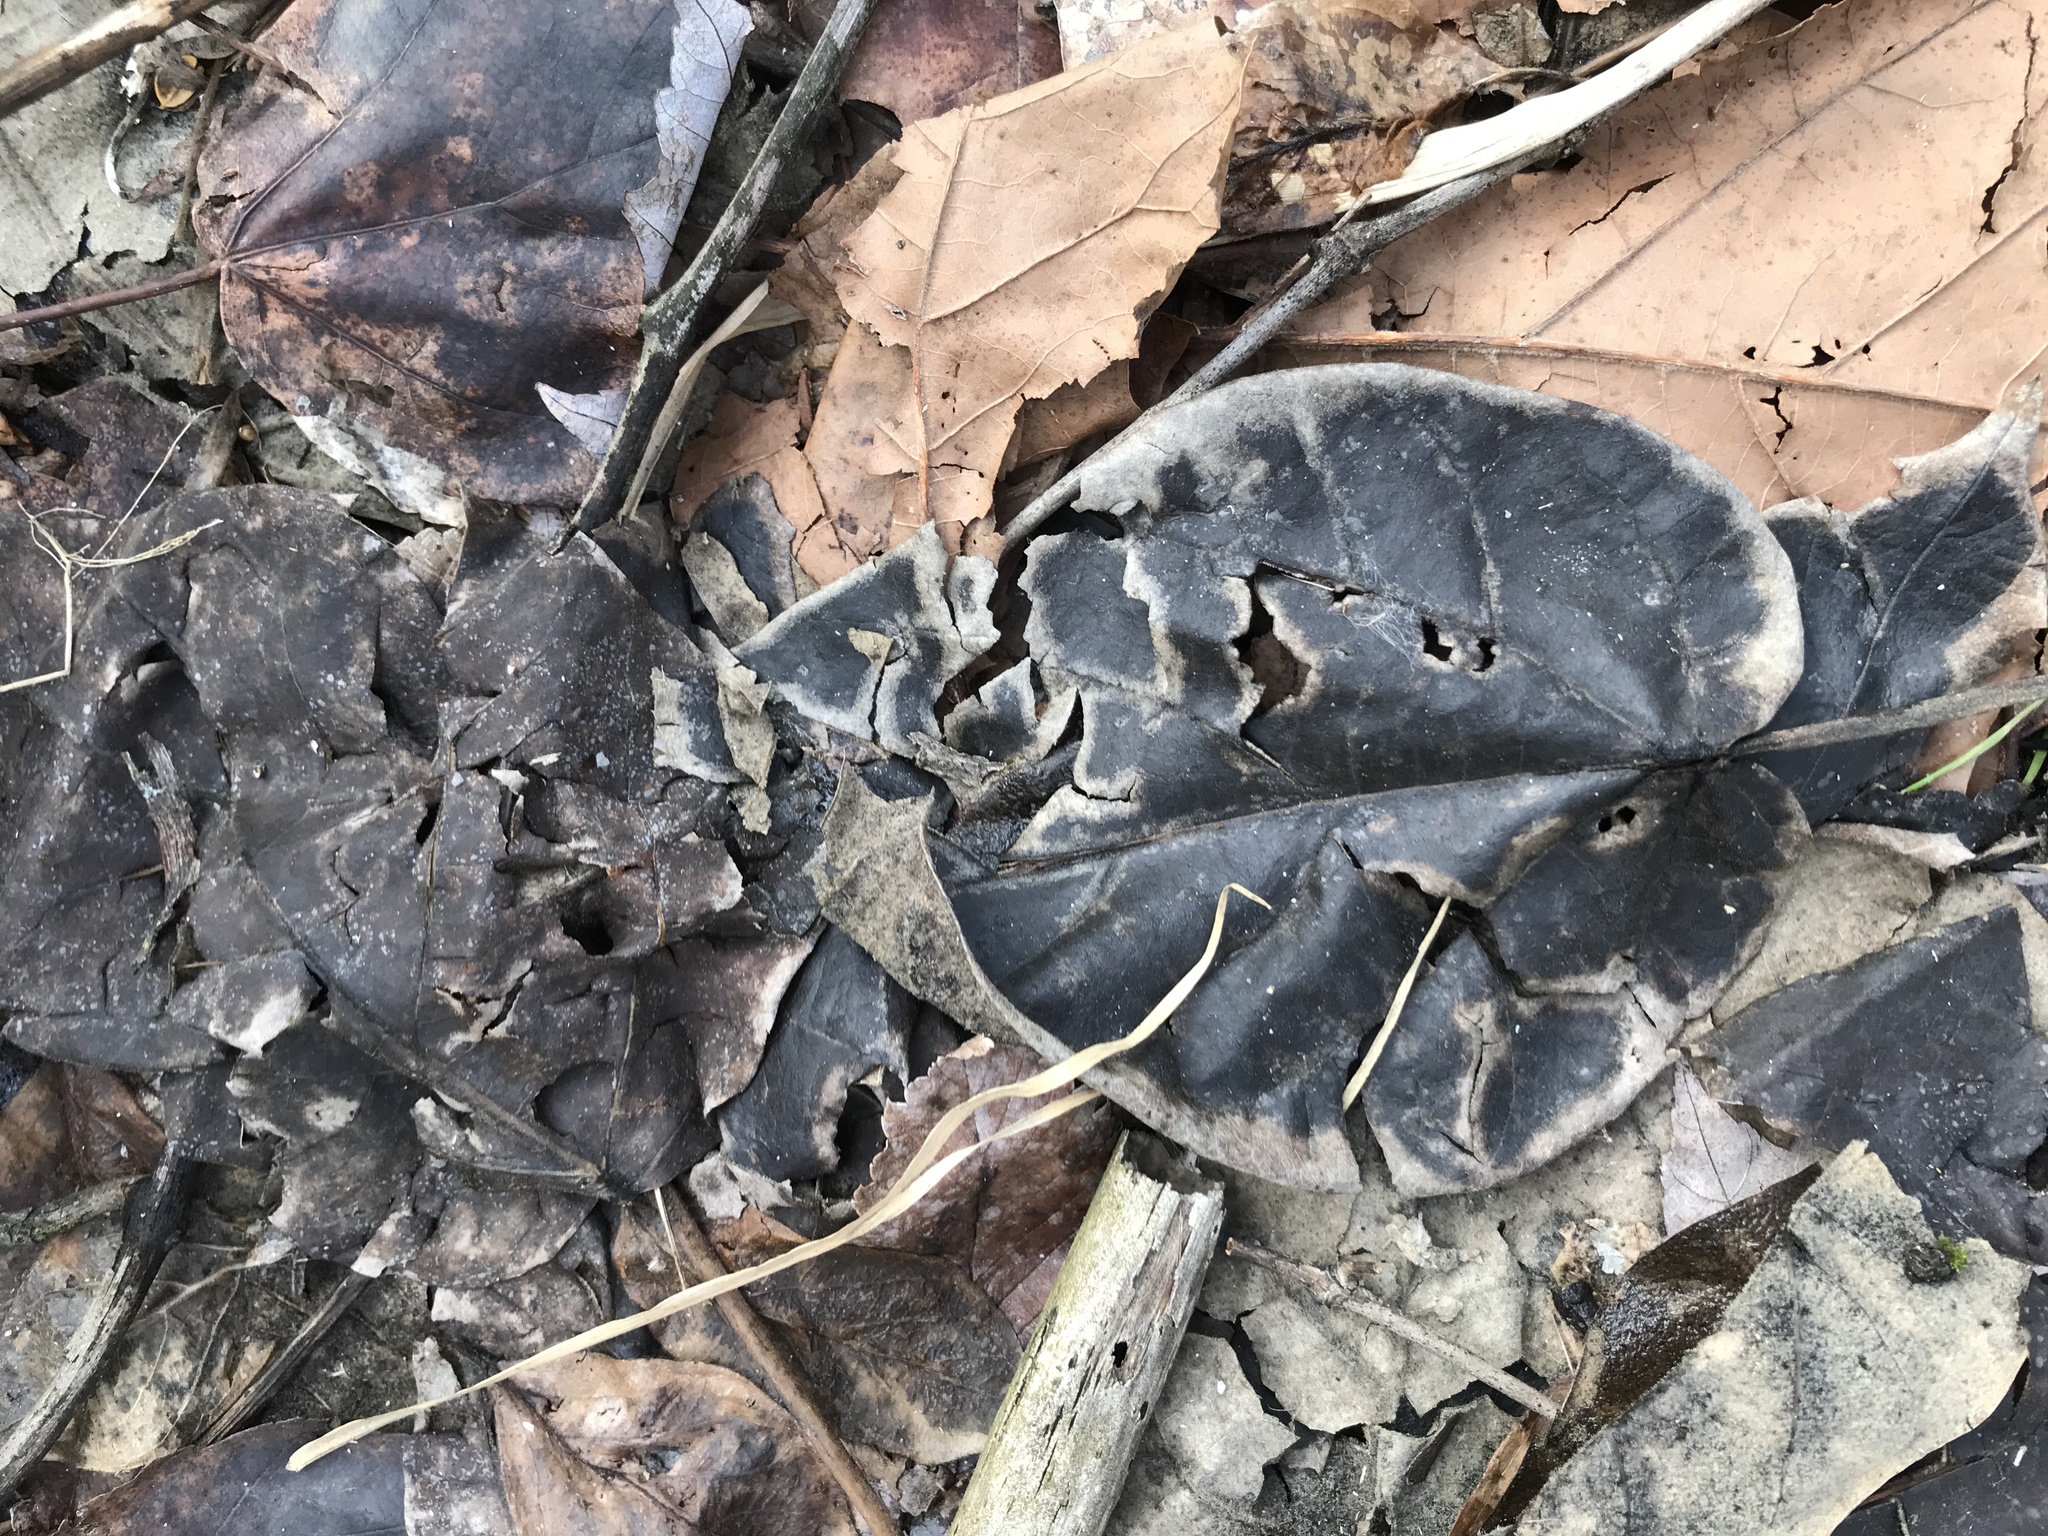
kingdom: Plantae
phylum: Tracheophyta
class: Magnoliopsida
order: Lamiales
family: Paulowniaceae
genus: Paulownia
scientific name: Paulownia tomentosa
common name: Foxglove-tree
